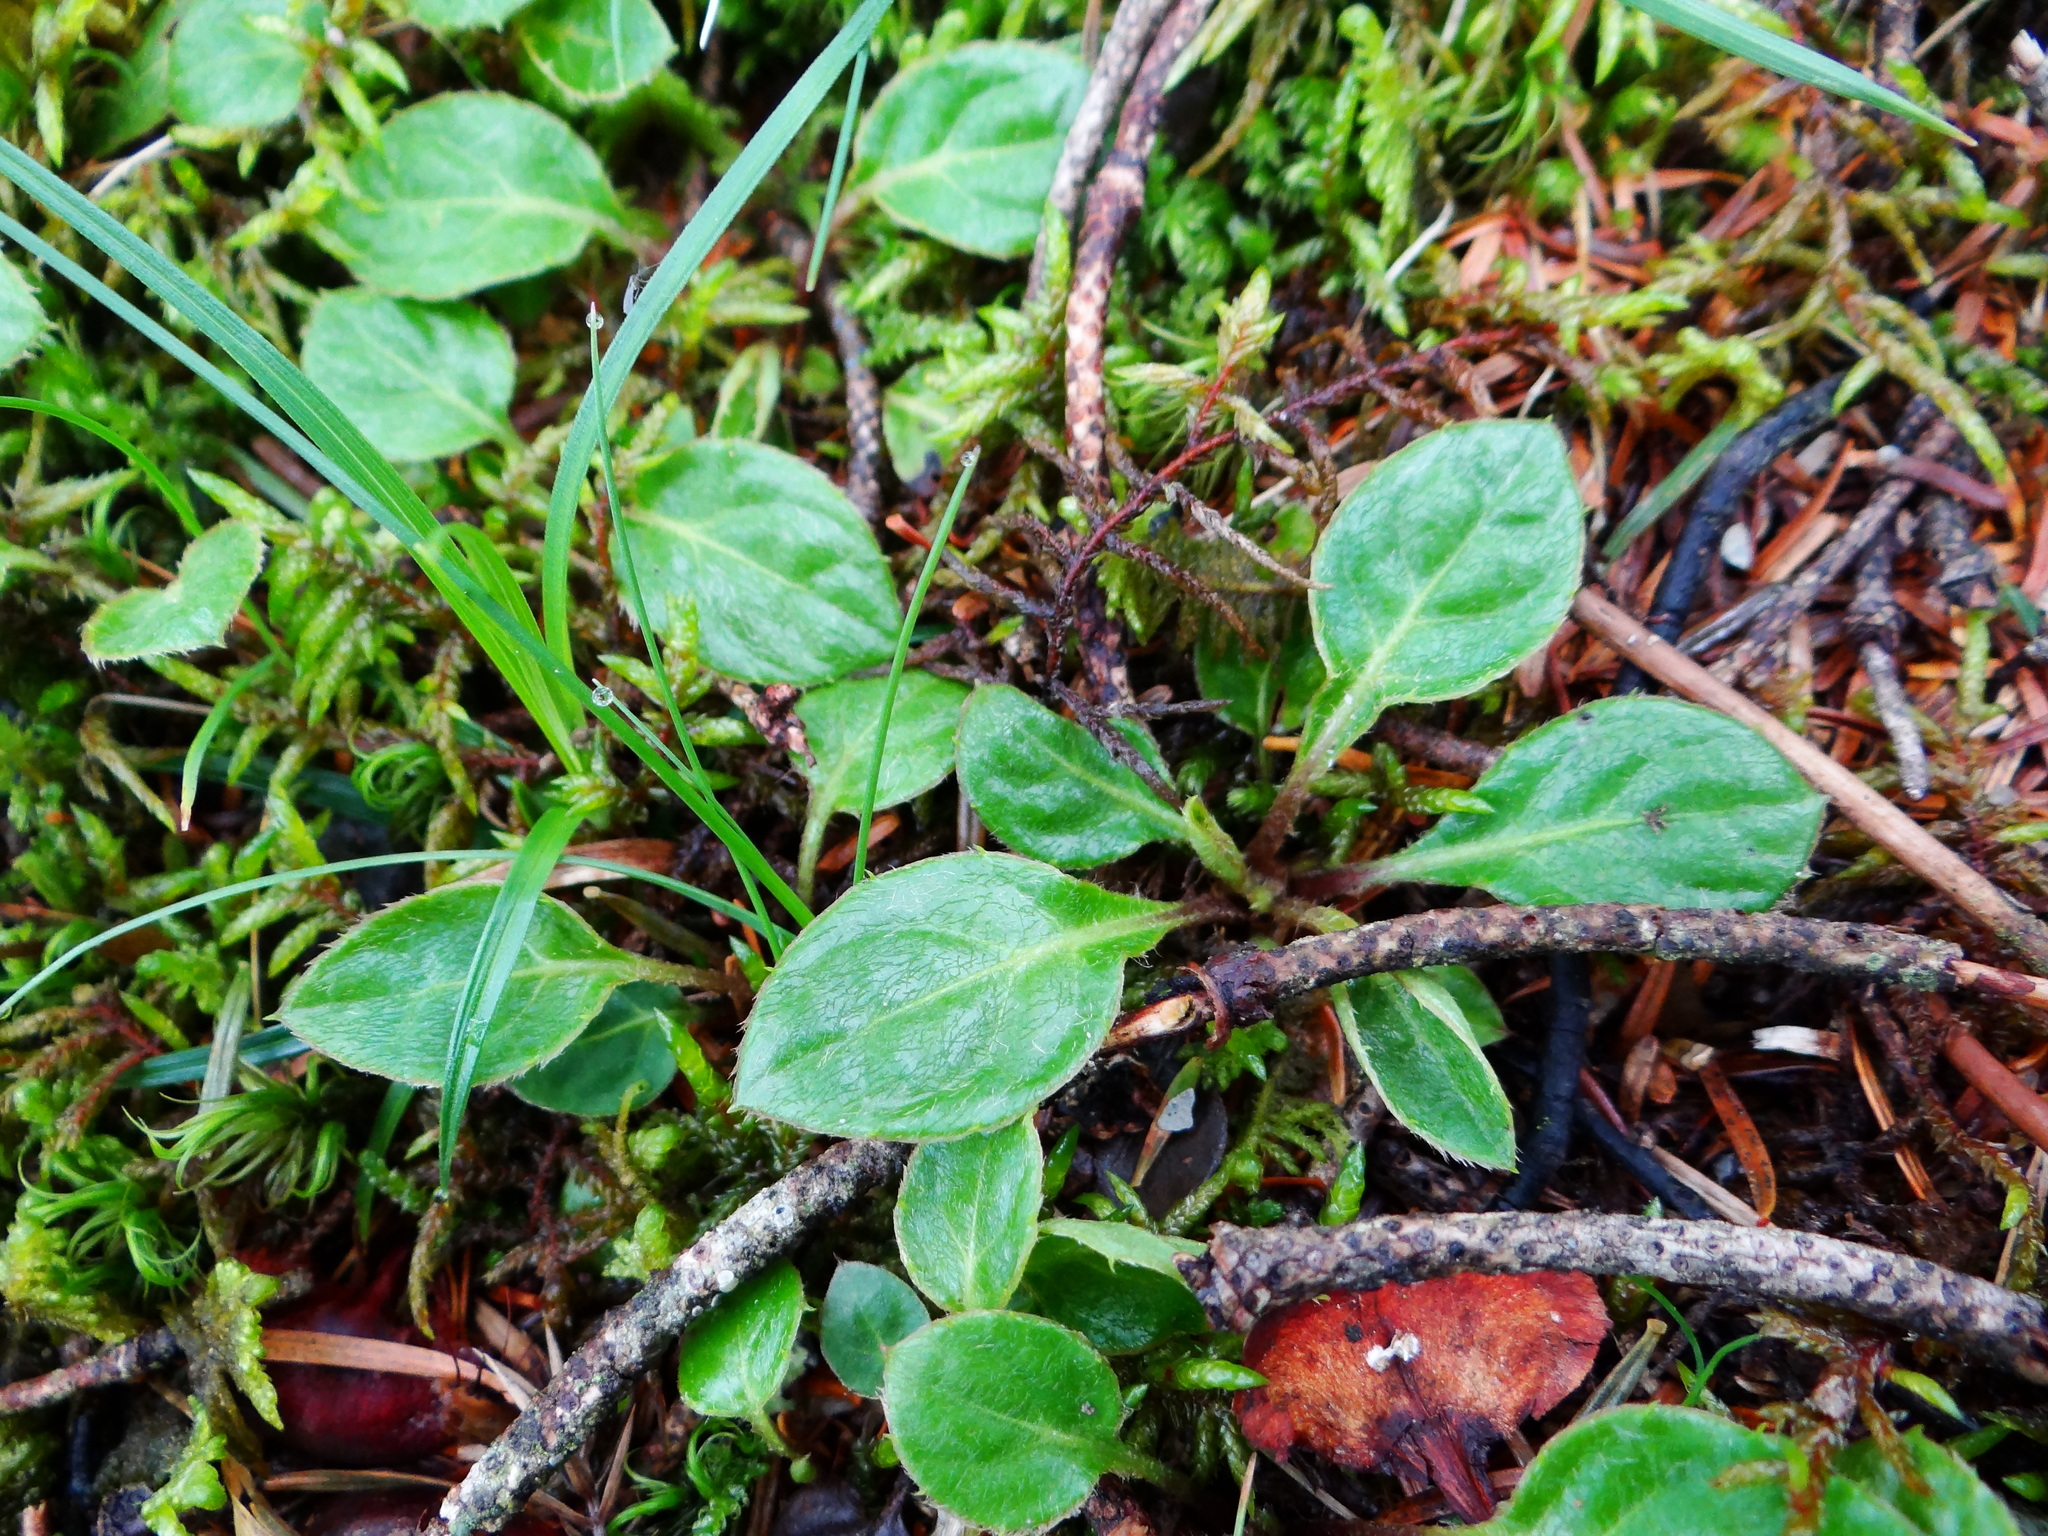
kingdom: Plantae
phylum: Tracheophyta
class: Magnoliopsida
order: Asterales
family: Asteraceae
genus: Ainsliaea
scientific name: Ainsliaea henryi
